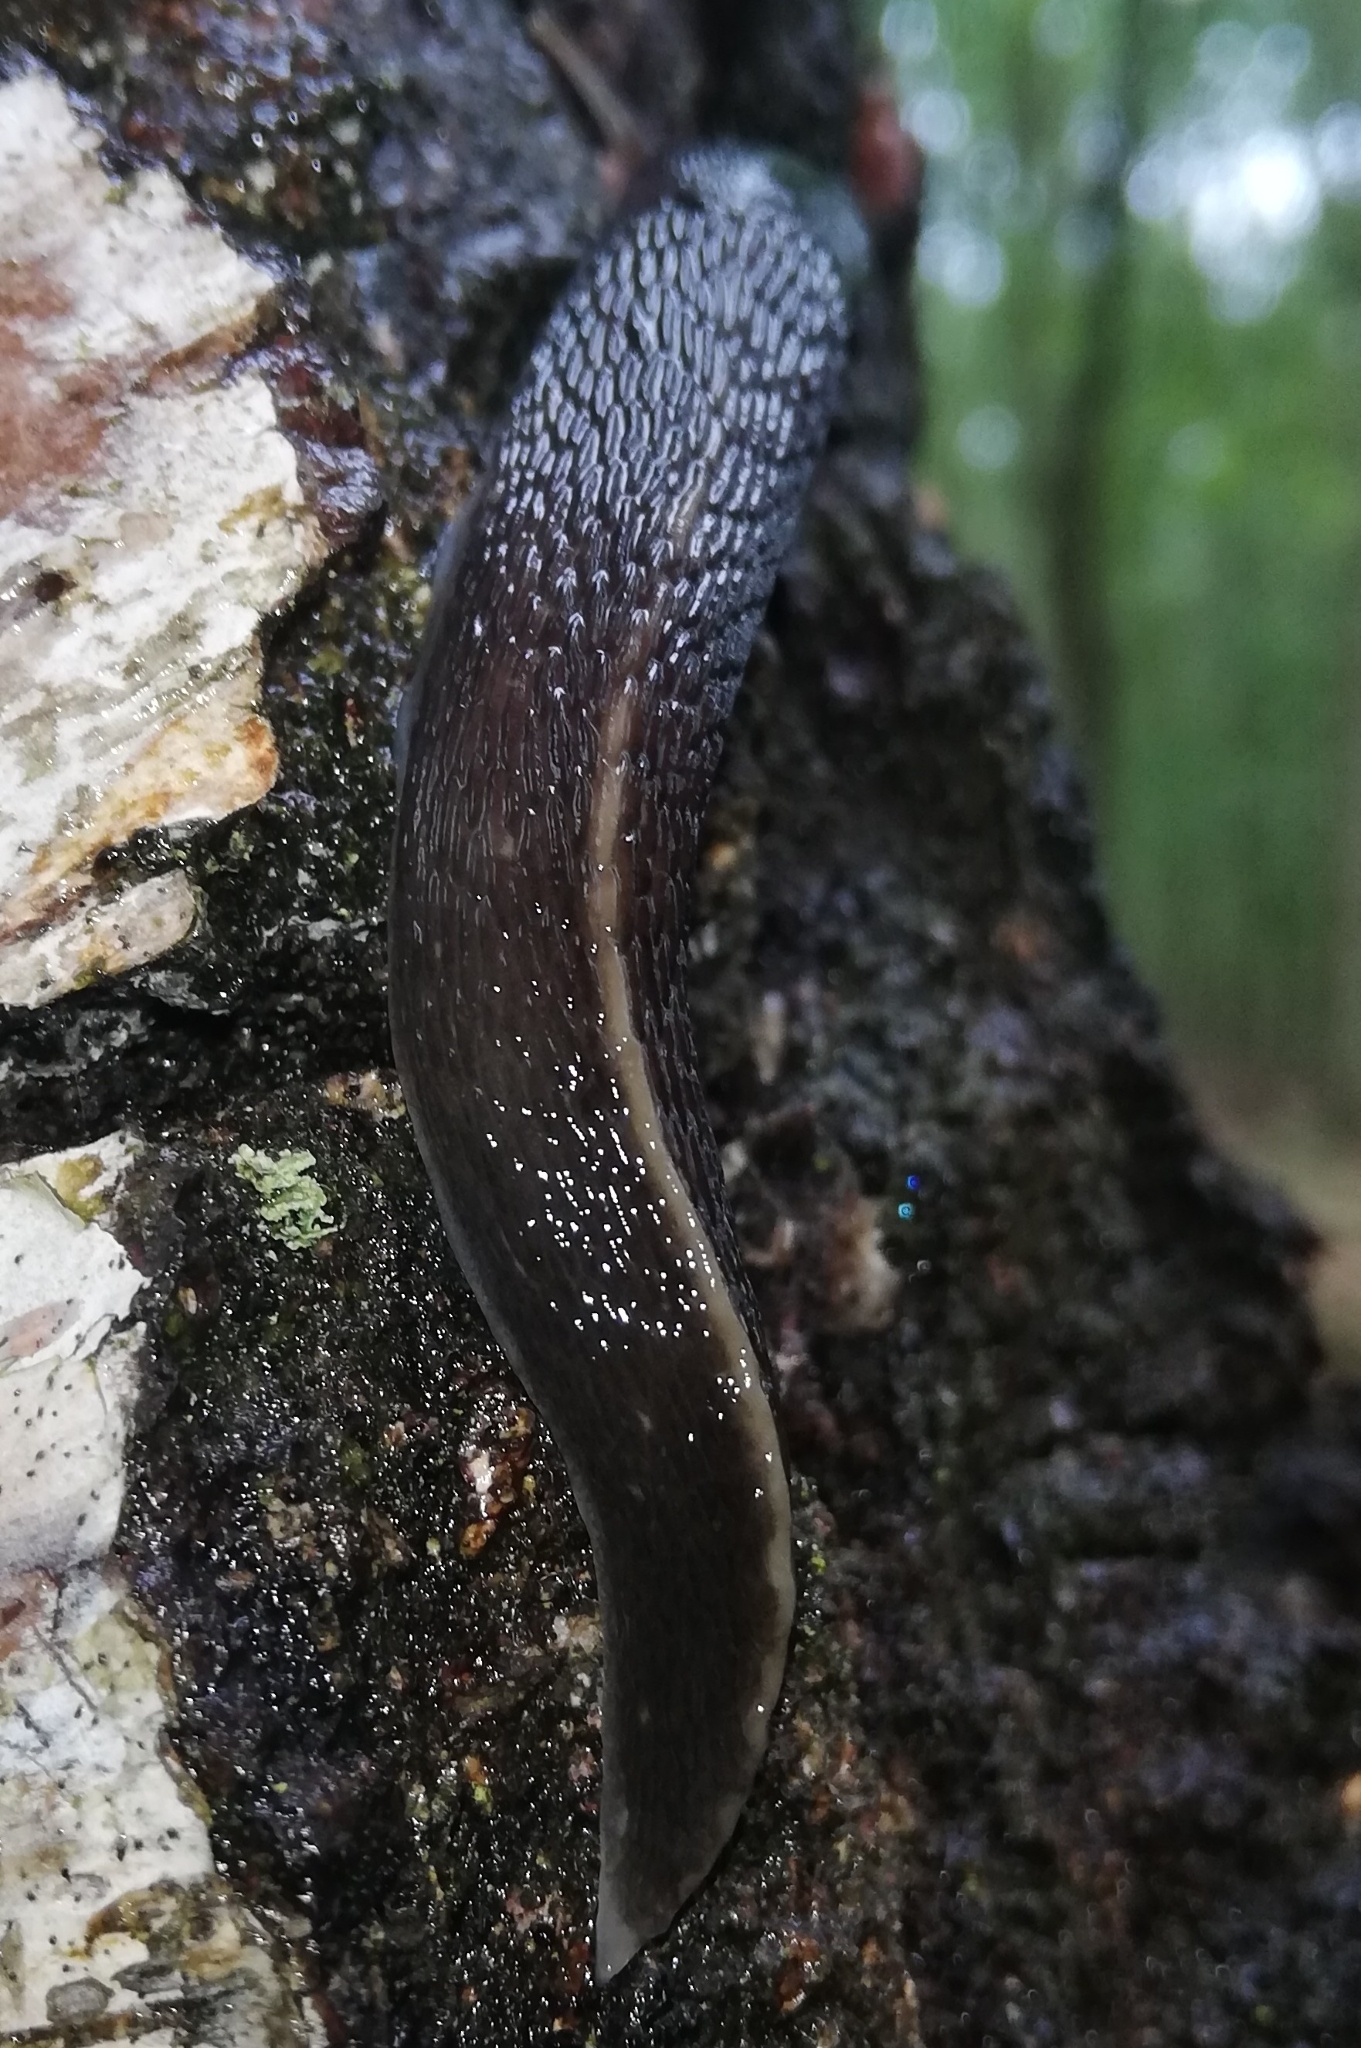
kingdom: Animalia
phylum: Mollusca
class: Gastropoda
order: Stylommatophora
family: Limacidae
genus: Limax
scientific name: Limax cinereoniger
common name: Ash-black slug
